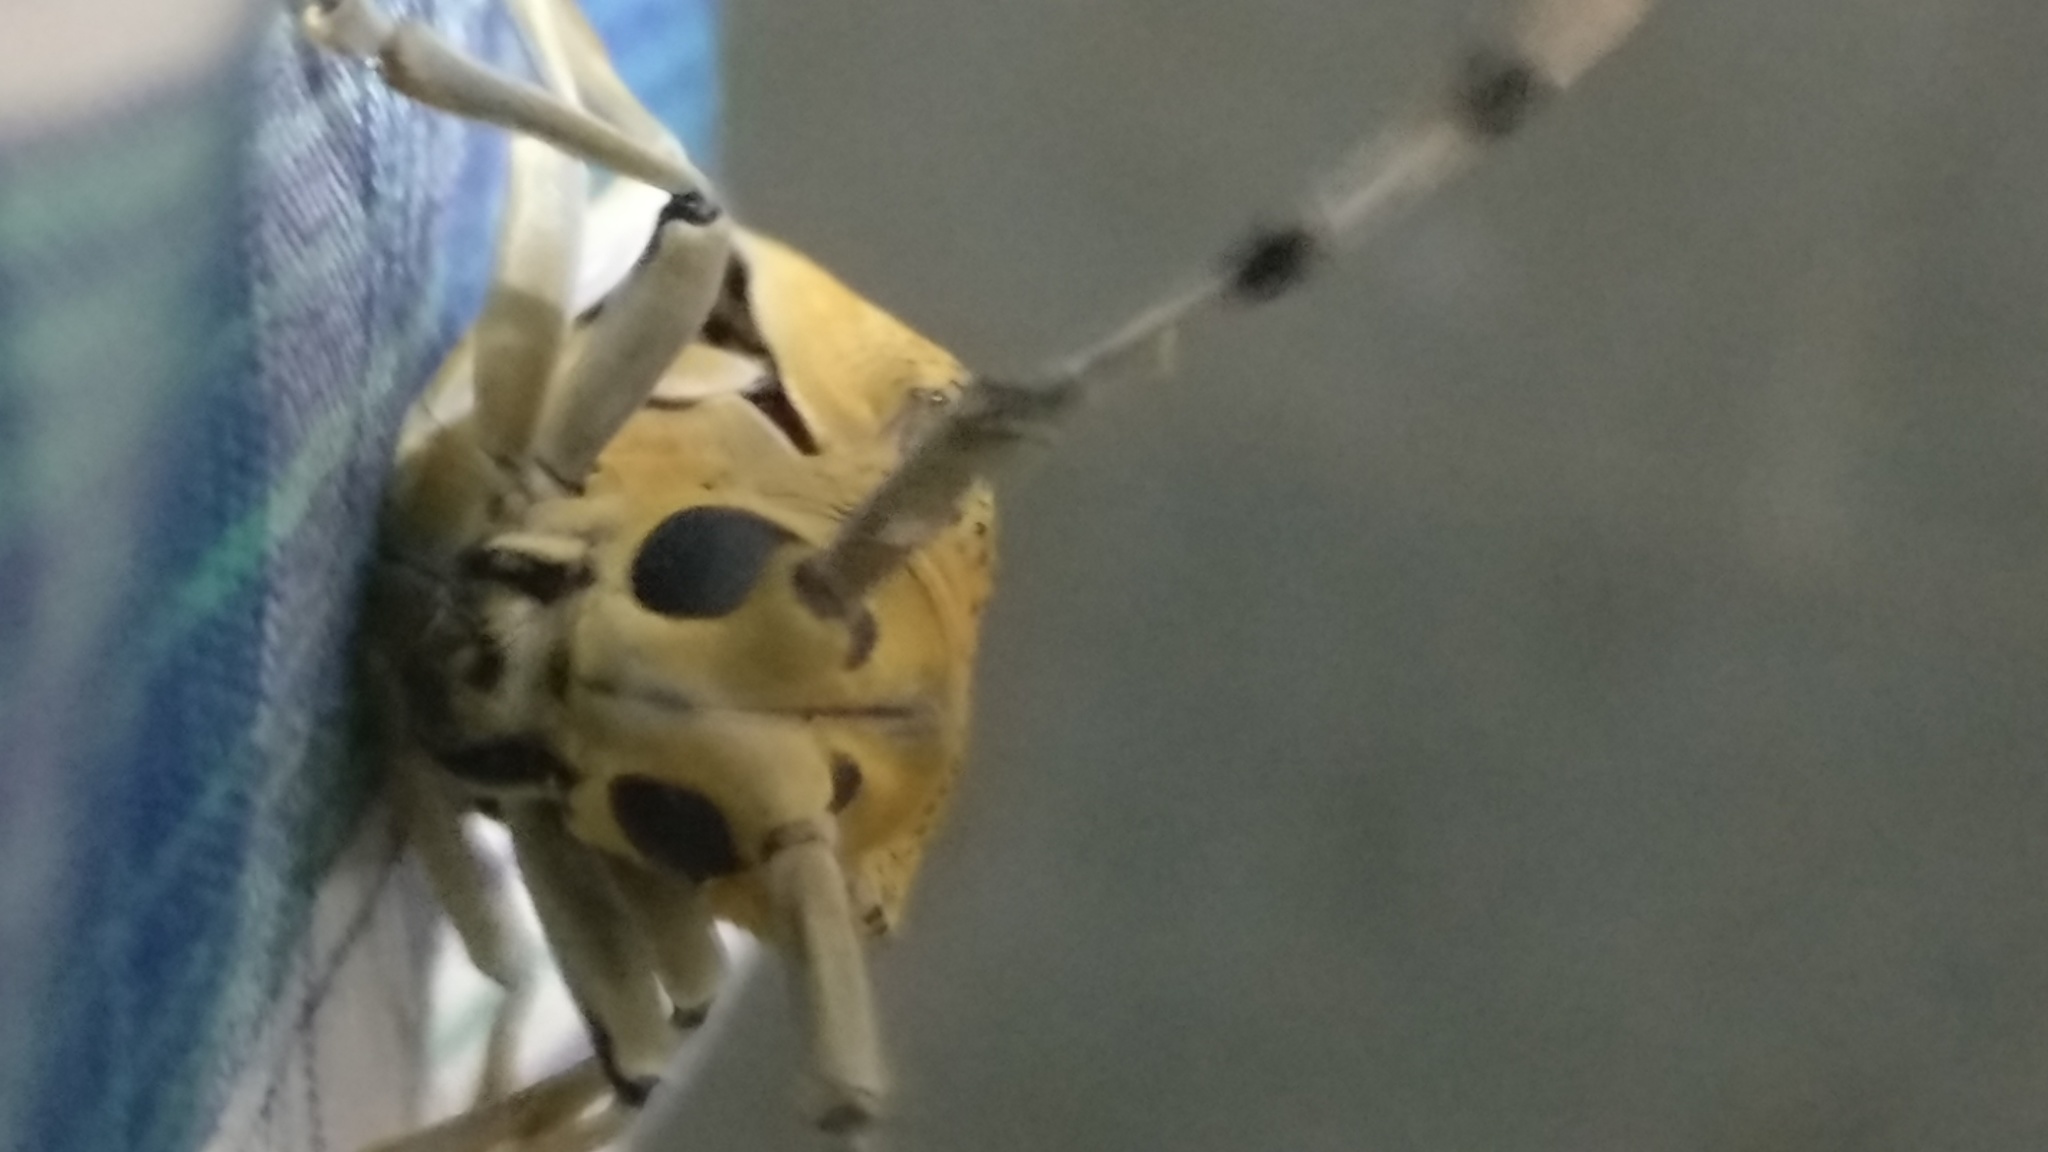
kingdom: Animalia
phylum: Arthropoda
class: Insecta
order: Coleoptera
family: Cerambycidae
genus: Cerosterna
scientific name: Cerosterna scabrator
